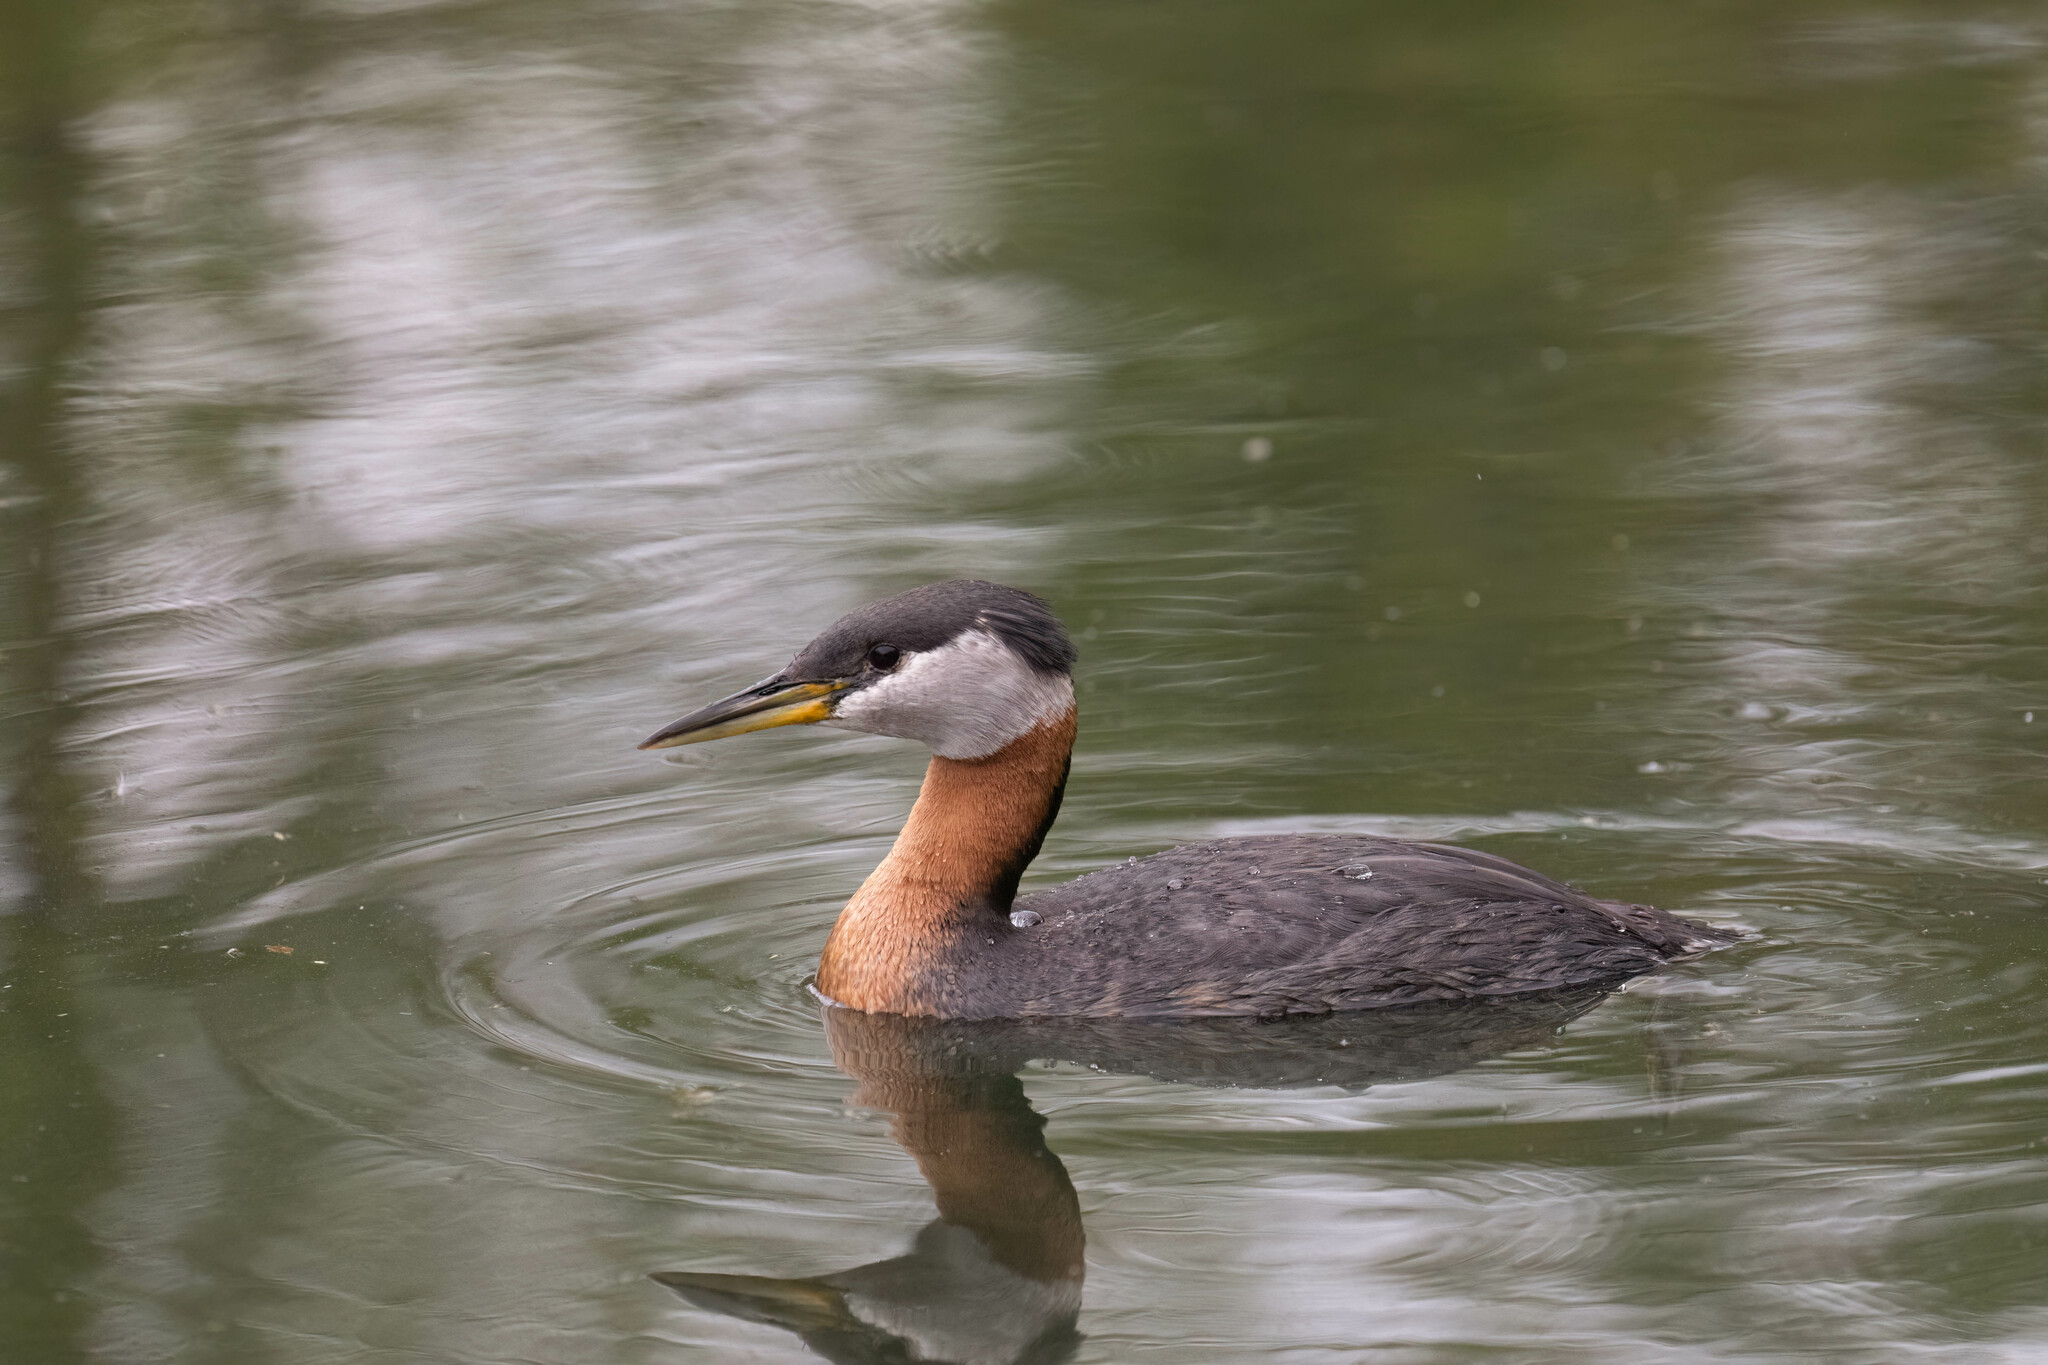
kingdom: Animalia
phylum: Chordata
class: Aves
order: Podicipediformes
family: Podicipedidae
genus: Podiceps
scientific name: Podiceps grisegena
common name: Red-necked grebe
